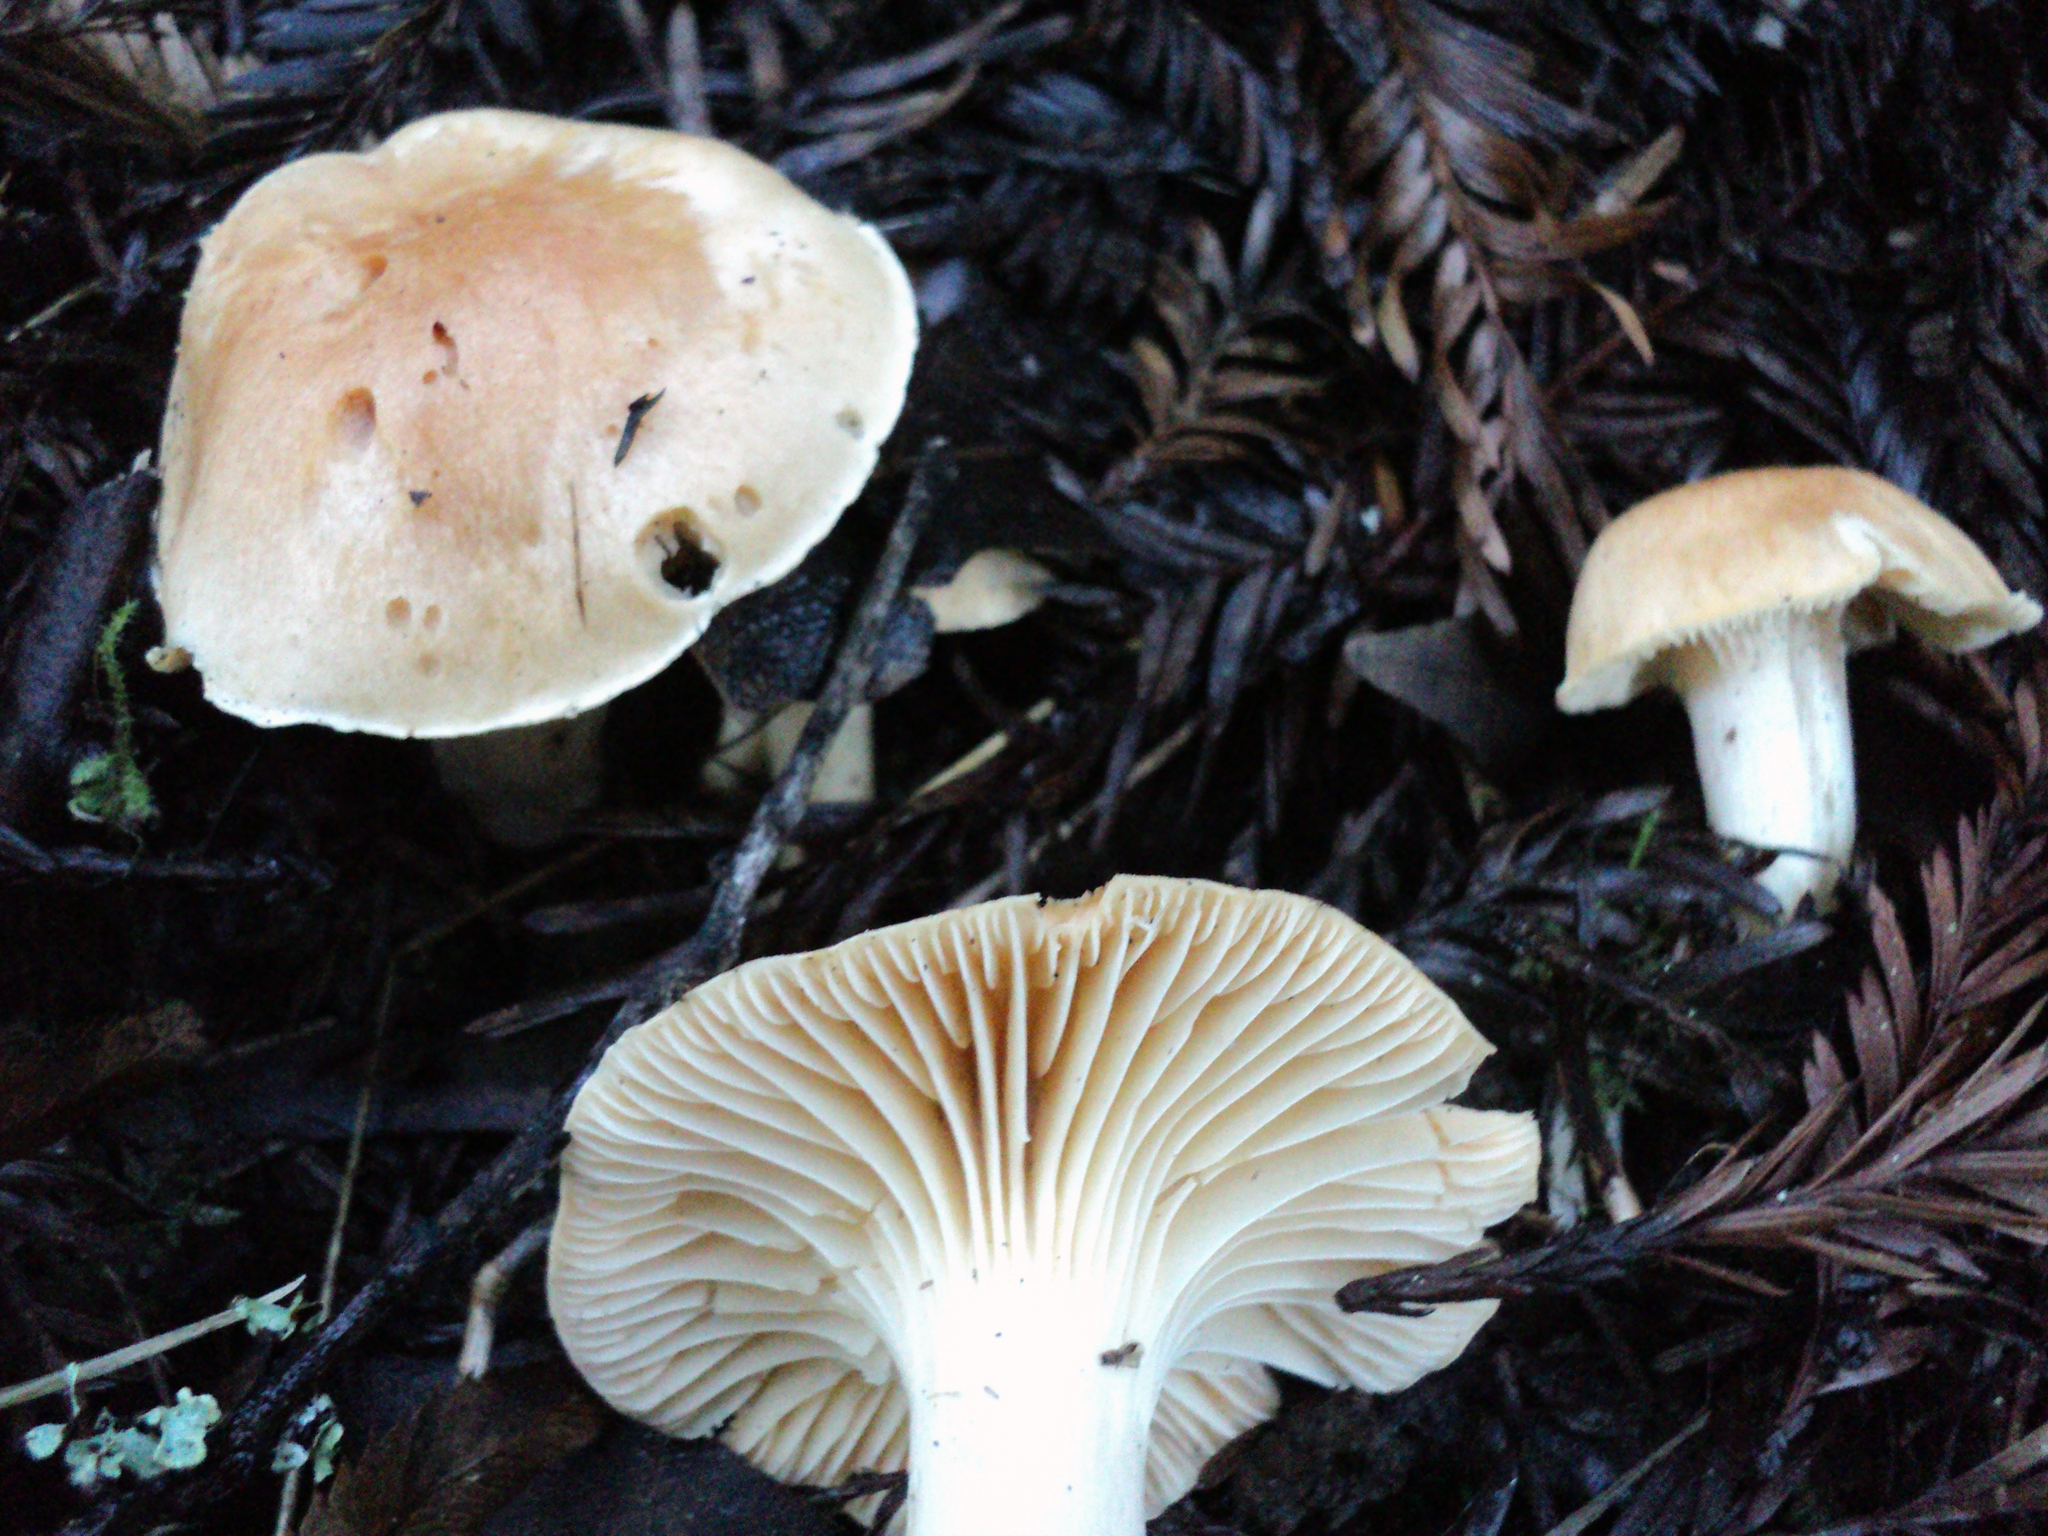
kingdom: Fungi
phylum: Basidiomycota
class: Agaricomycetes
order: Agaricales
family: Hygrophoraceae
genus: Cuphophyllus
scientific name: Cuphophyllus pratensis
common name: Meadow waxcap
